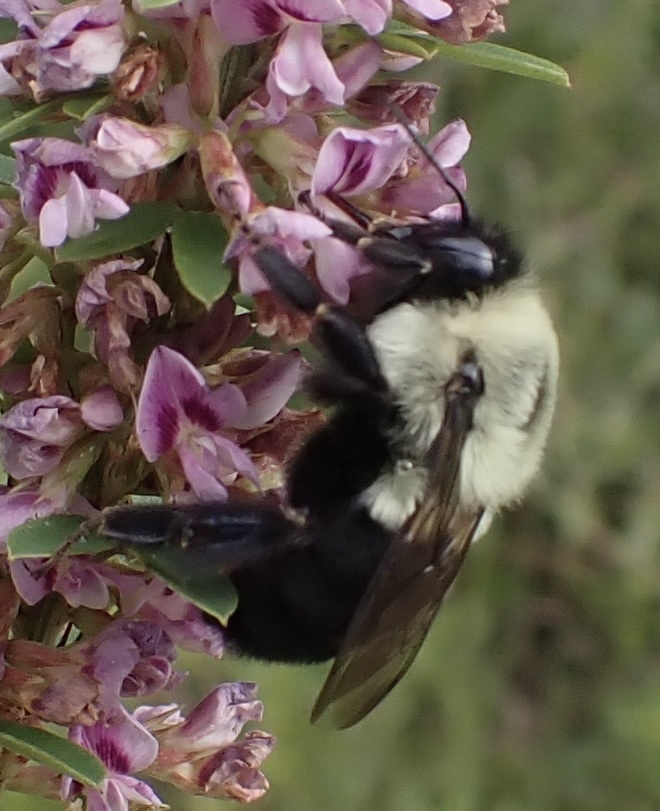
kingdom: Animalia
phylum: Arthropoda
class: Insecta
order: Hymenoptera
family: Apidae
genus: Bombus
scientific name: Bombus impatiens
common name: Common eastern bumble bee
